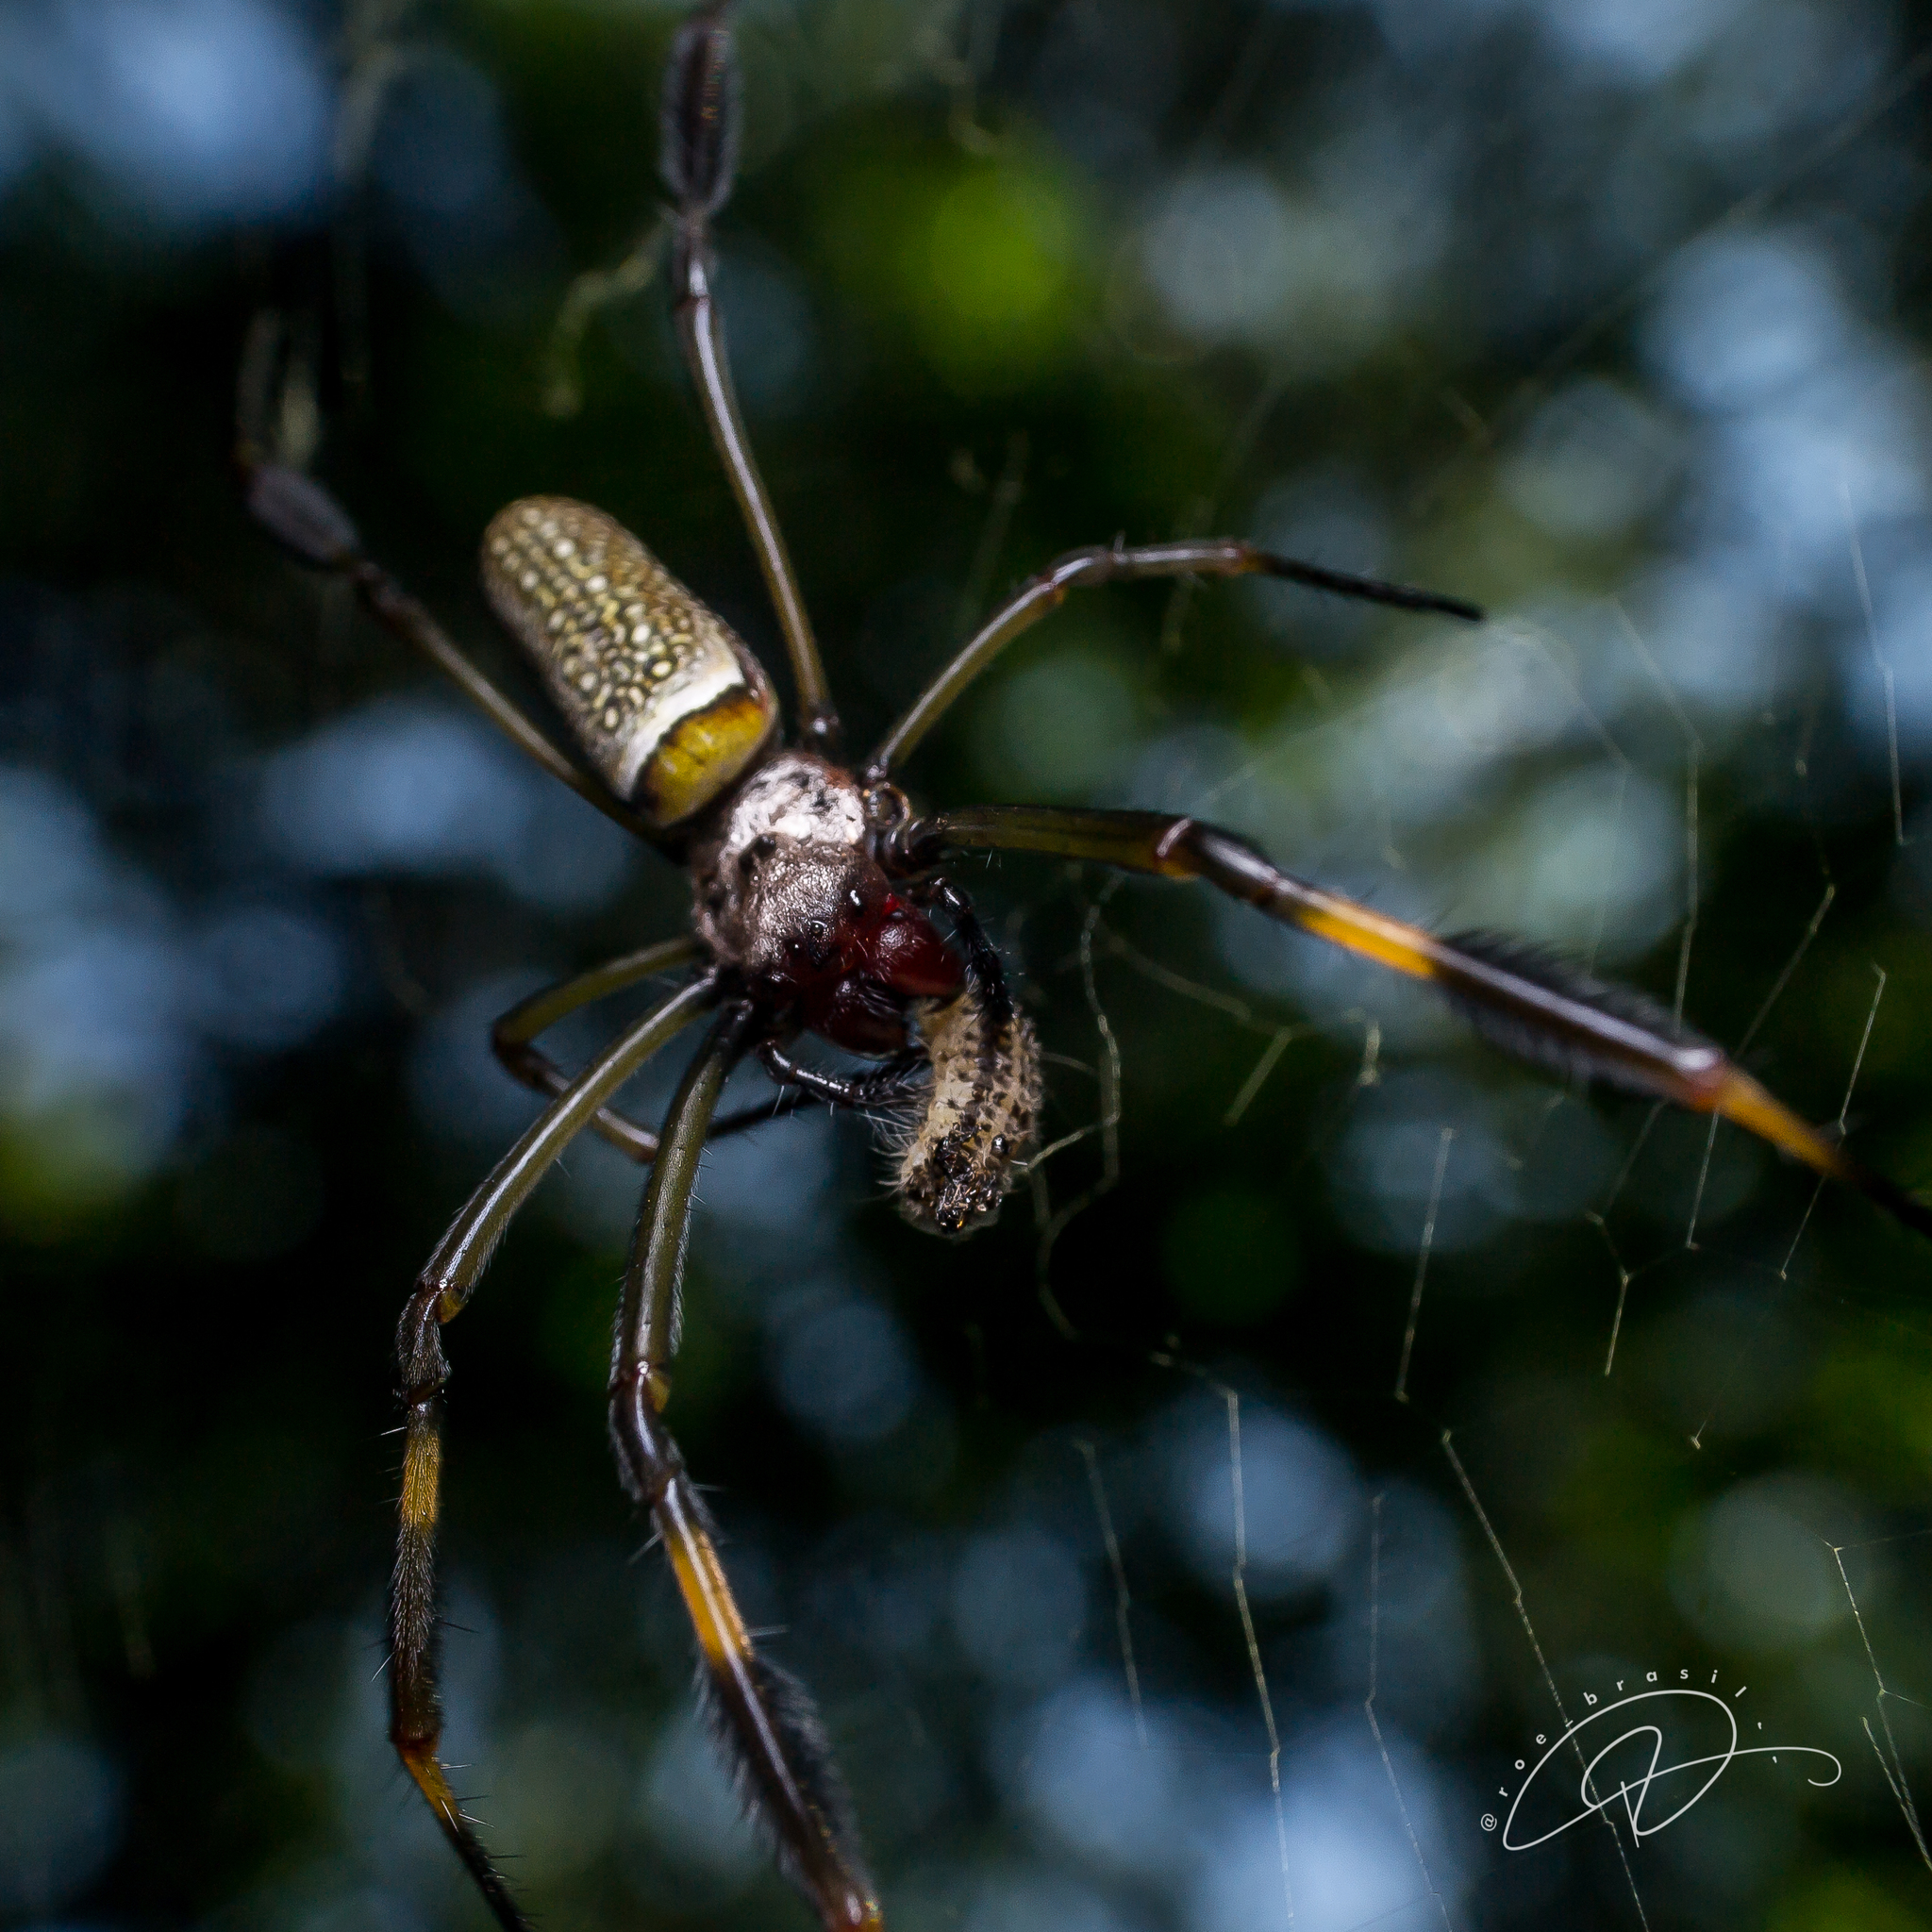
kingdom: Animalia
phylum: Arthropoda
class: Arachnida
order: Araneae
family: Araneidae
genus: Trichonephila
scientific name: Trichonephila clavipes
